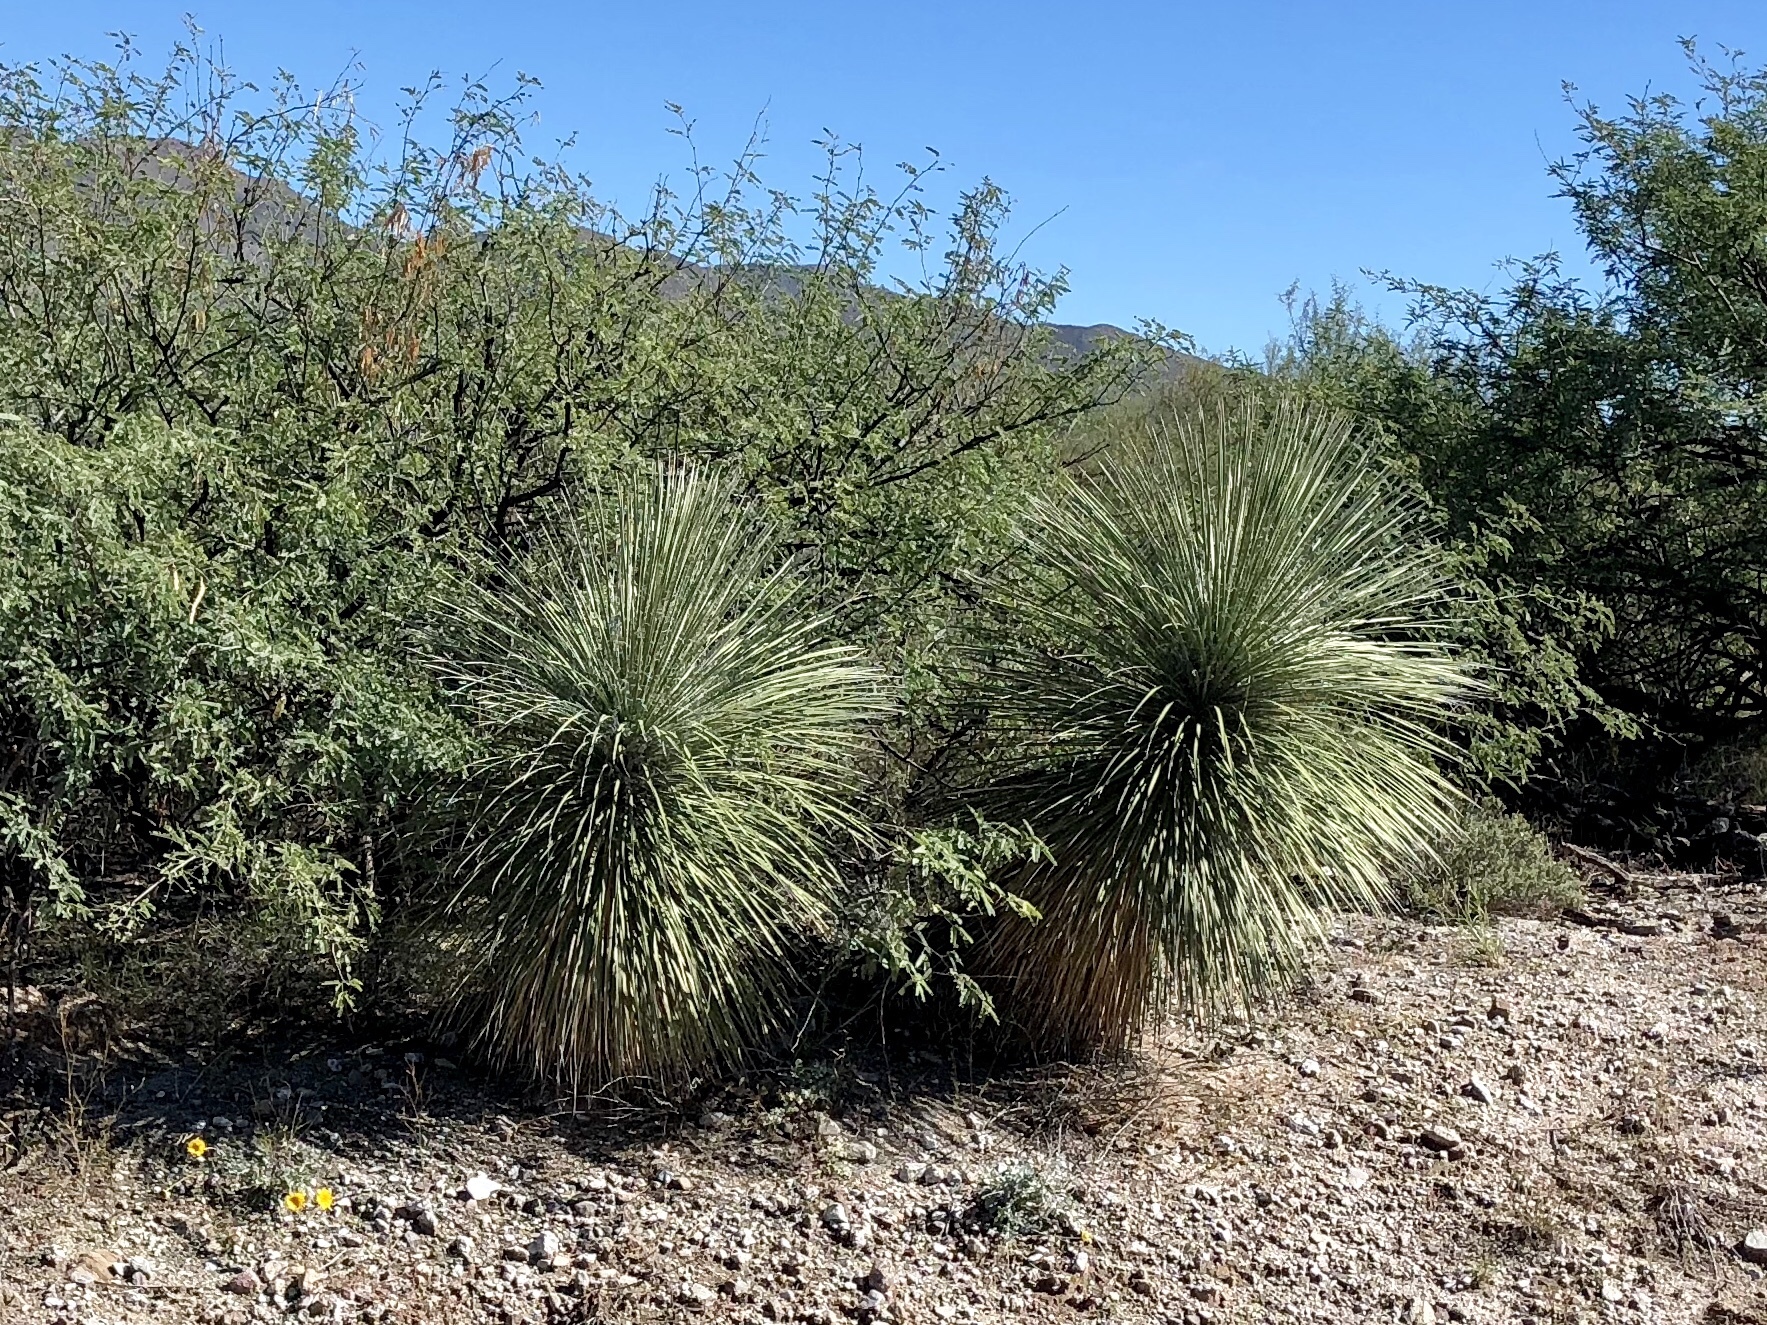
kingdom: Plantae
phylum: Tracheophyta
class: Liliopsida
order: Asparagales
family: Asparagaceae
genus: Yucca
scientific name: Yucca elata
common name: Palmella
